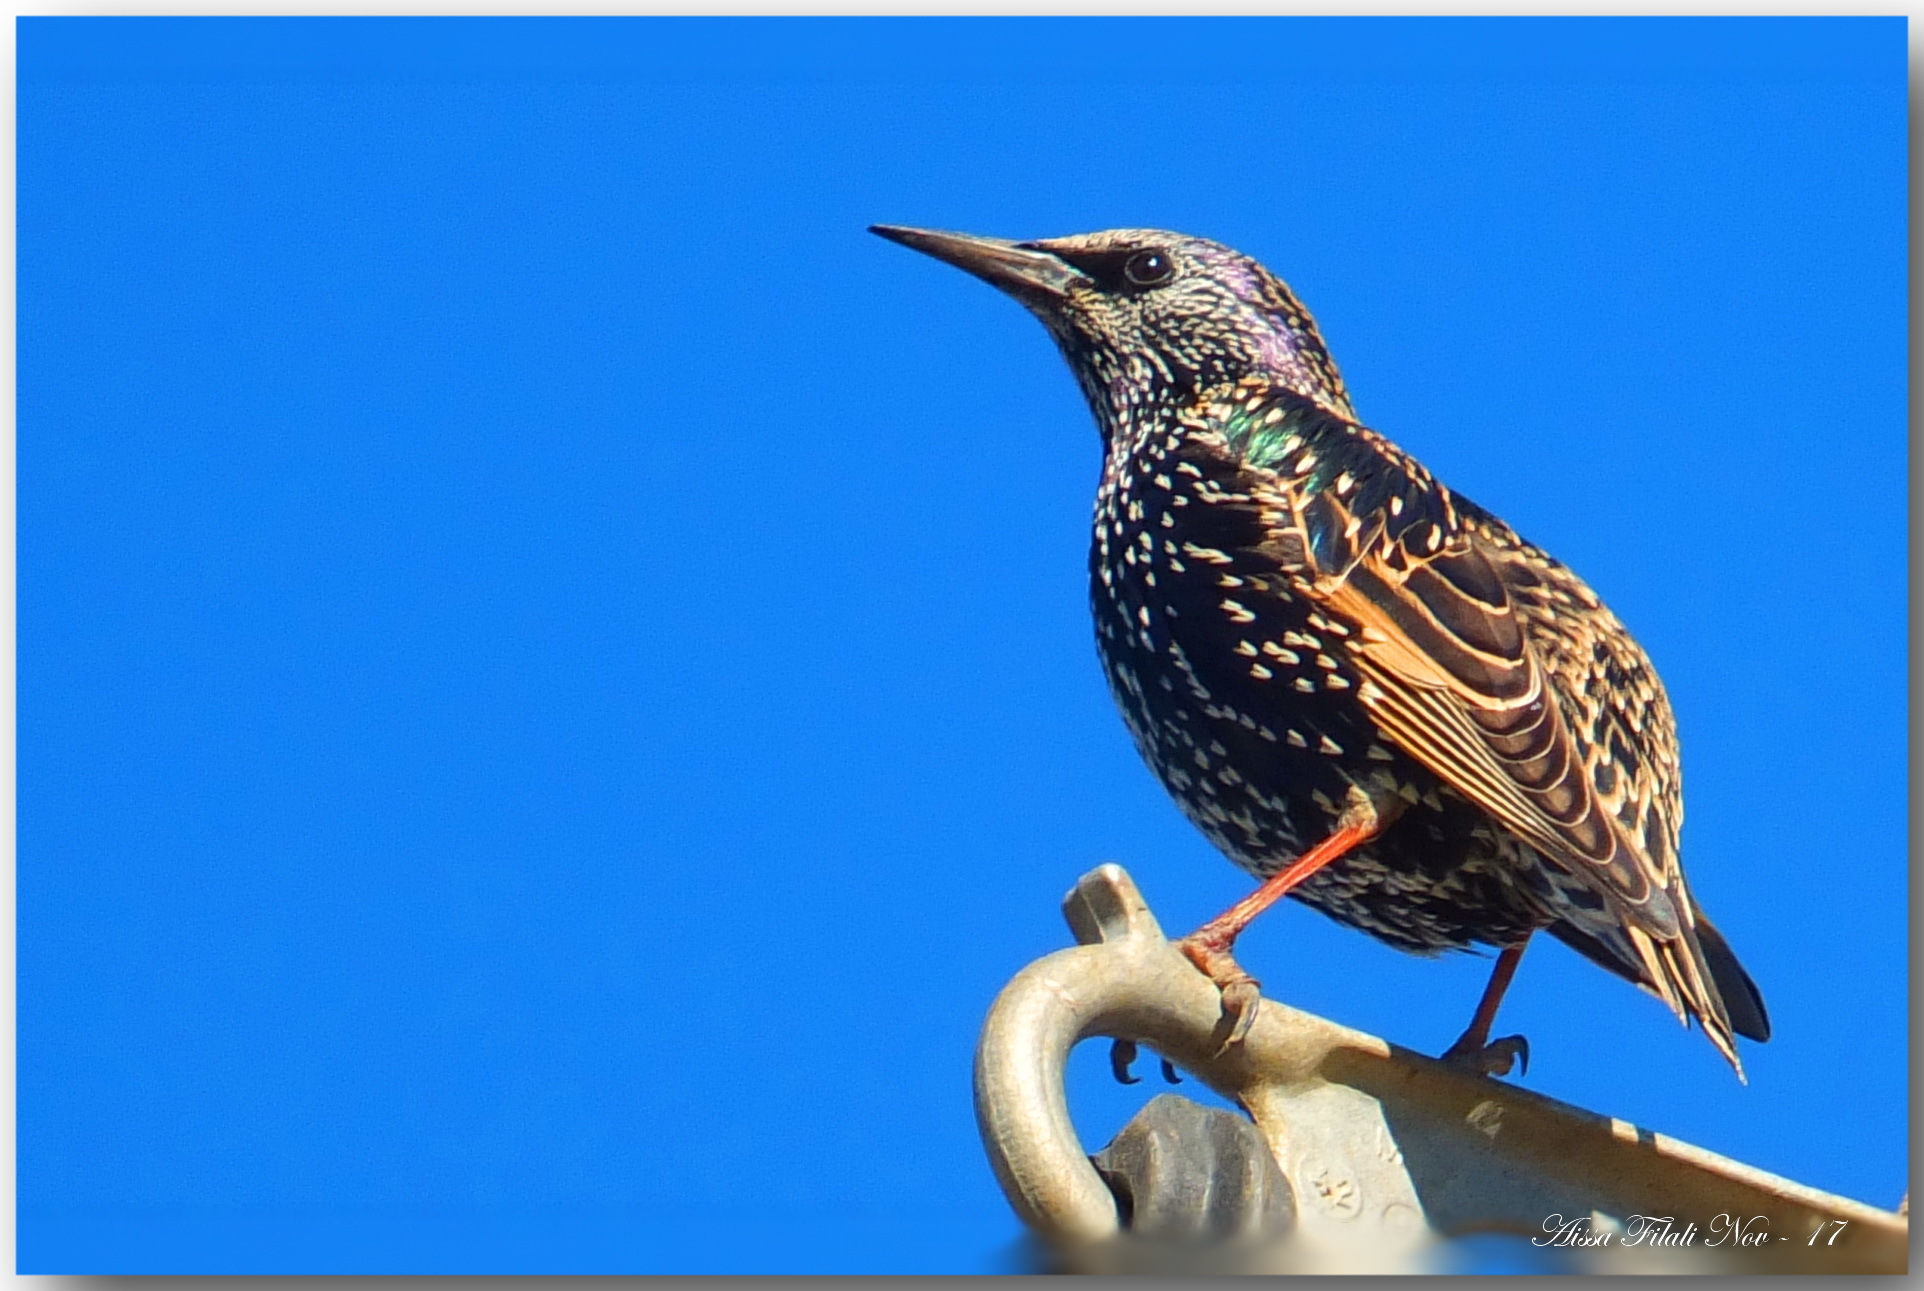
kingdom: Animalia
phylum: Chordata
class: Aves
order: Passeriformes
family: Sturnidae
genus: Sturnus
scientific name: Sturnus vulgaris
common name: Common starling
